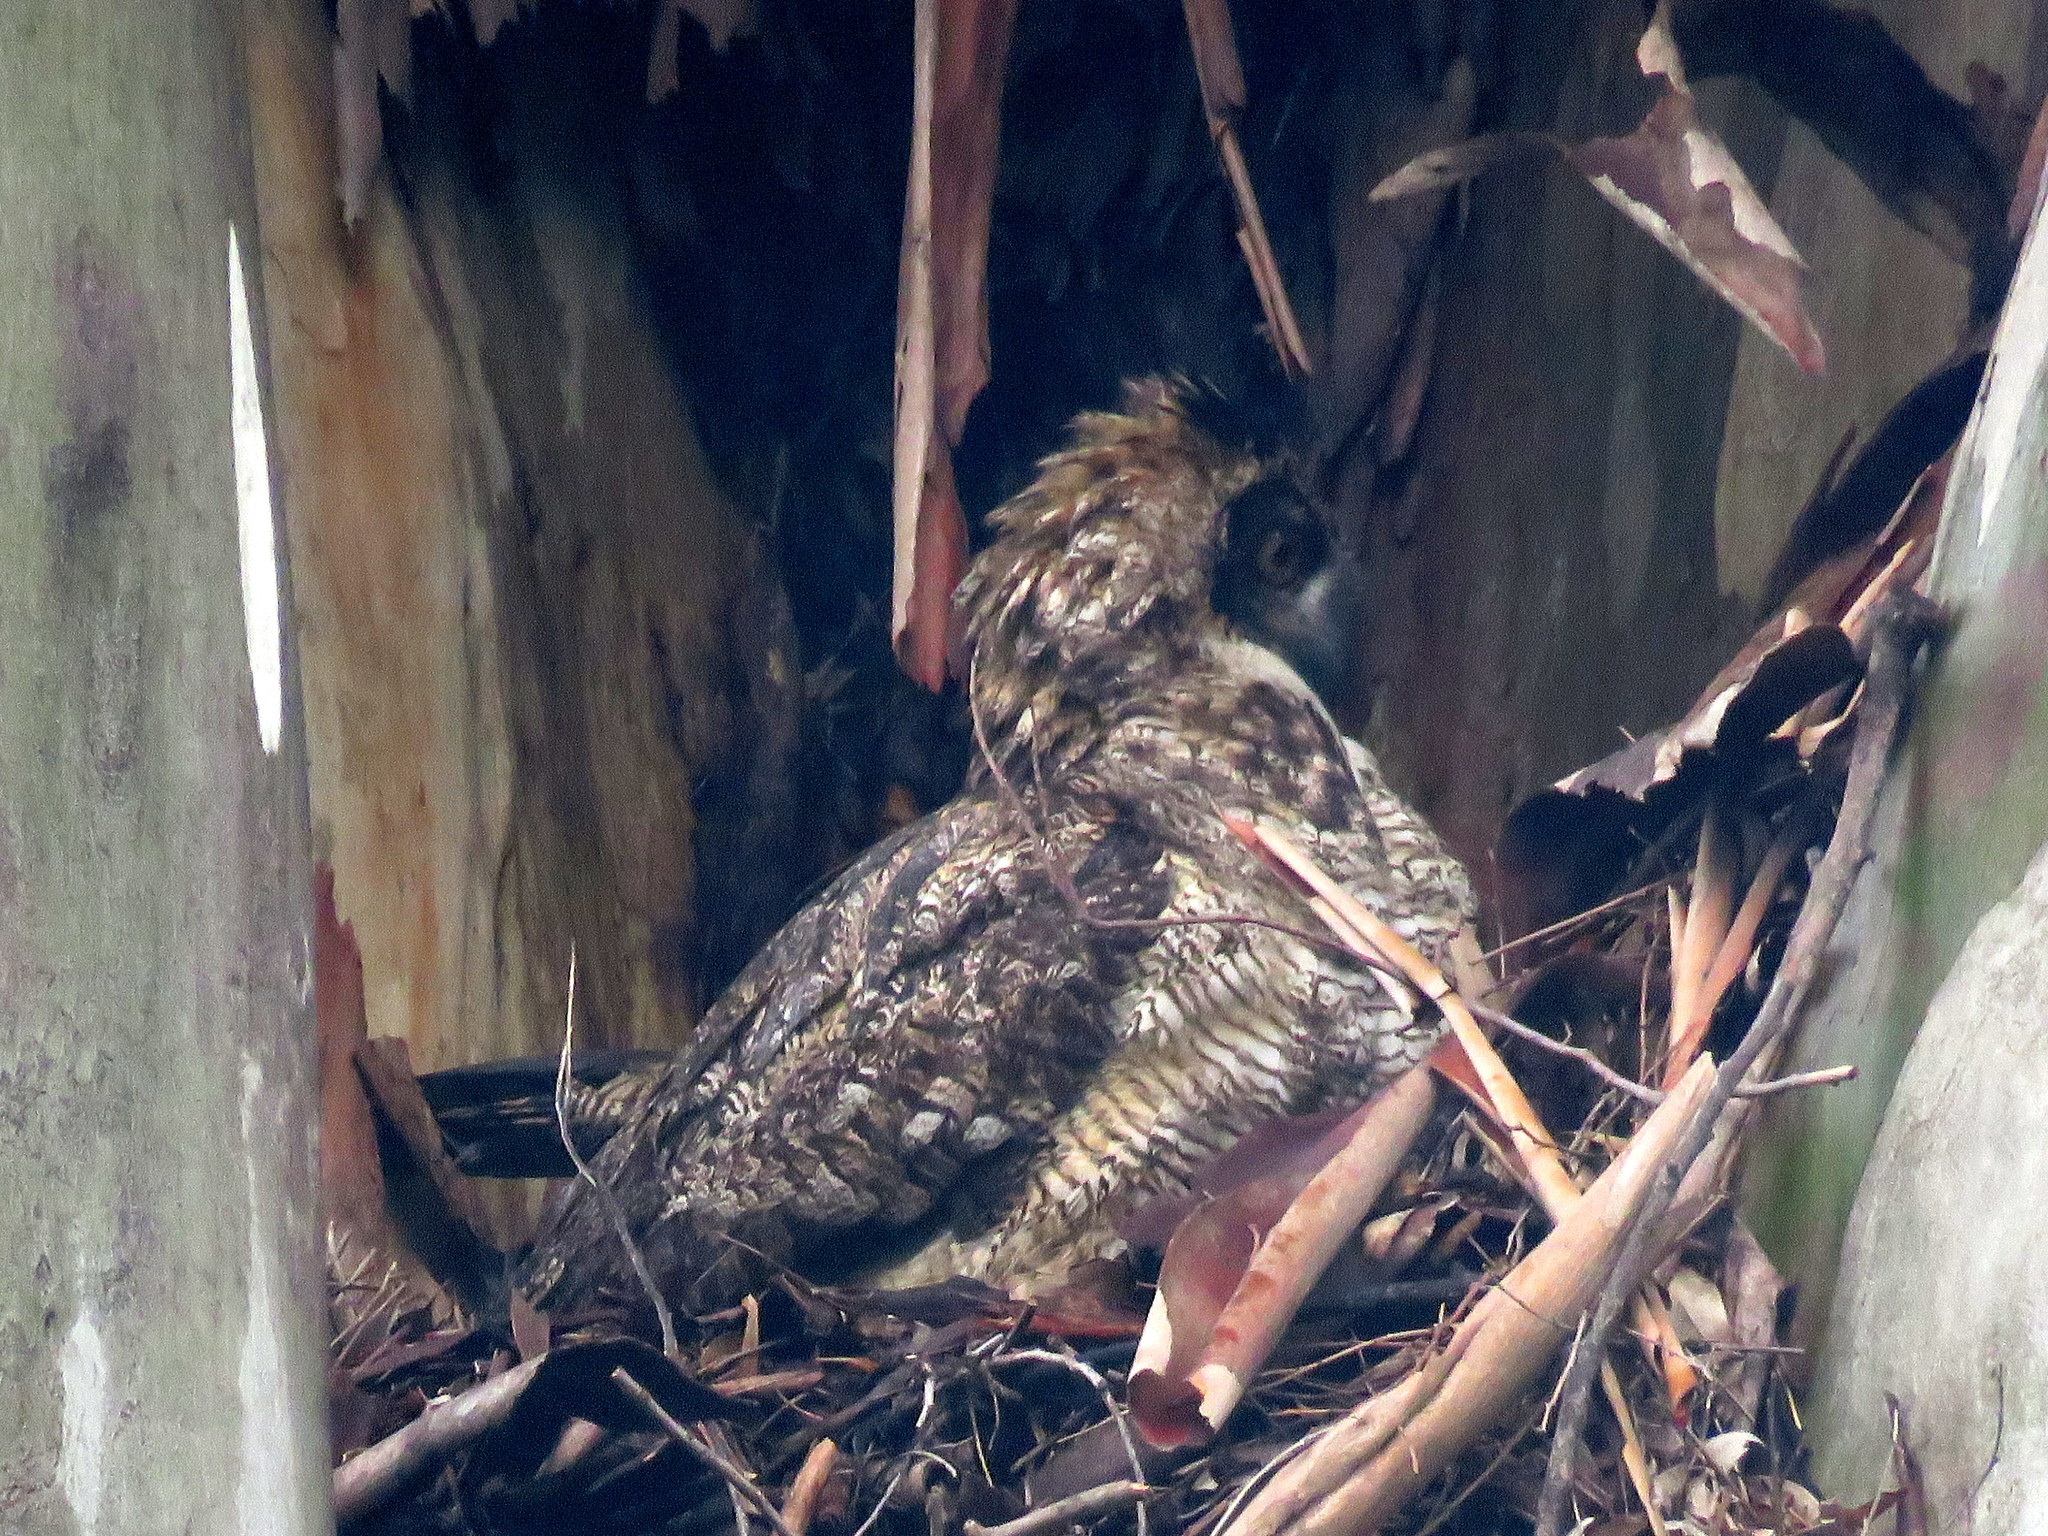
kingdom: Animalia
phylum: Chordata
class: Aves
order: Strigiformes
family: Strigidae
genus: Bubo
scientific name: Bubo virginianus
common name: Great horned owl
